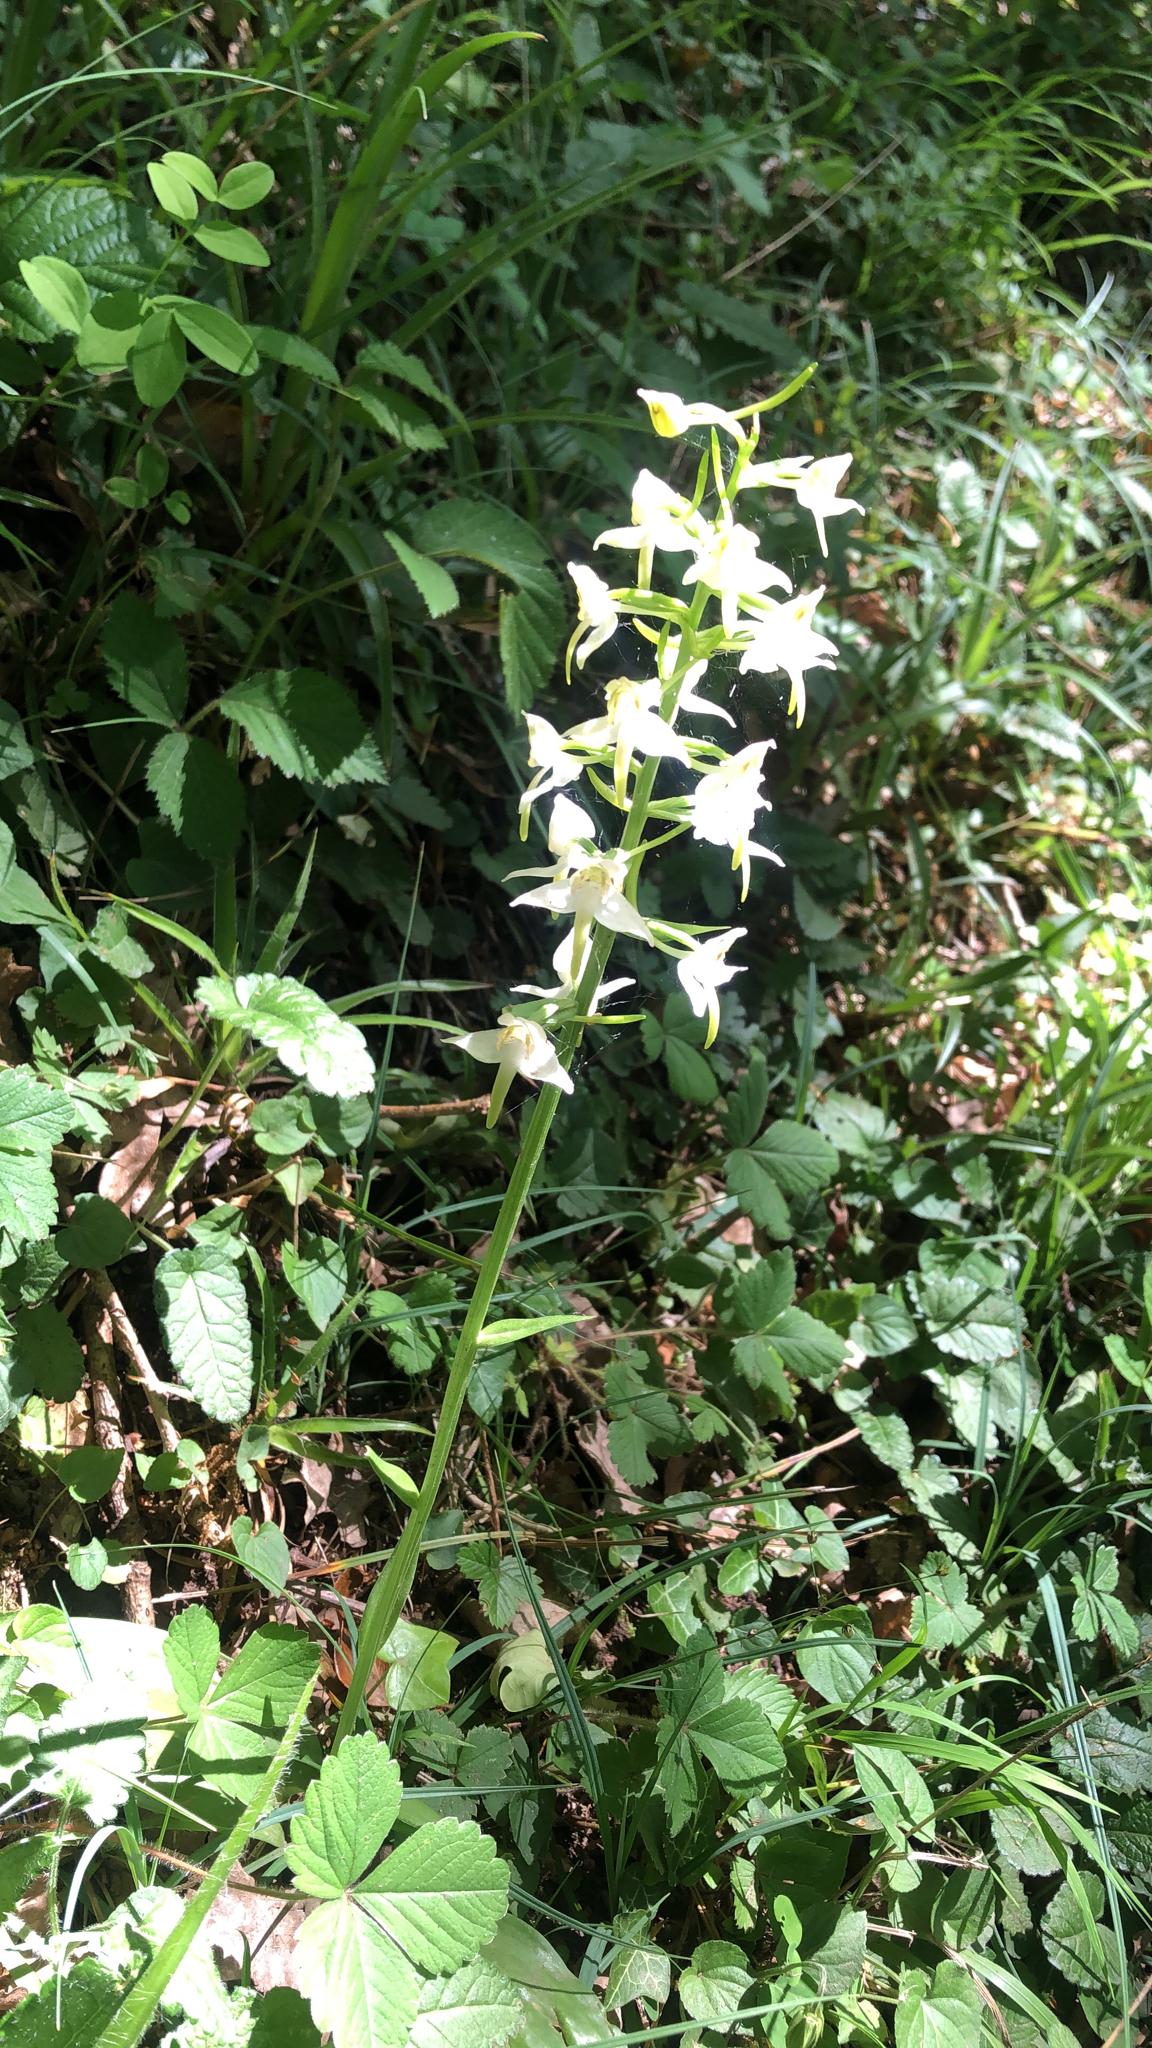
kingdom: Plantae
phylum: Tracheophyta
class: Liliopsida
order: Asparagales
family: Orchidaceae
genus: Platanthera
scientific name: Platanthera chlorantha
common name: Greater butterfly-orchid
